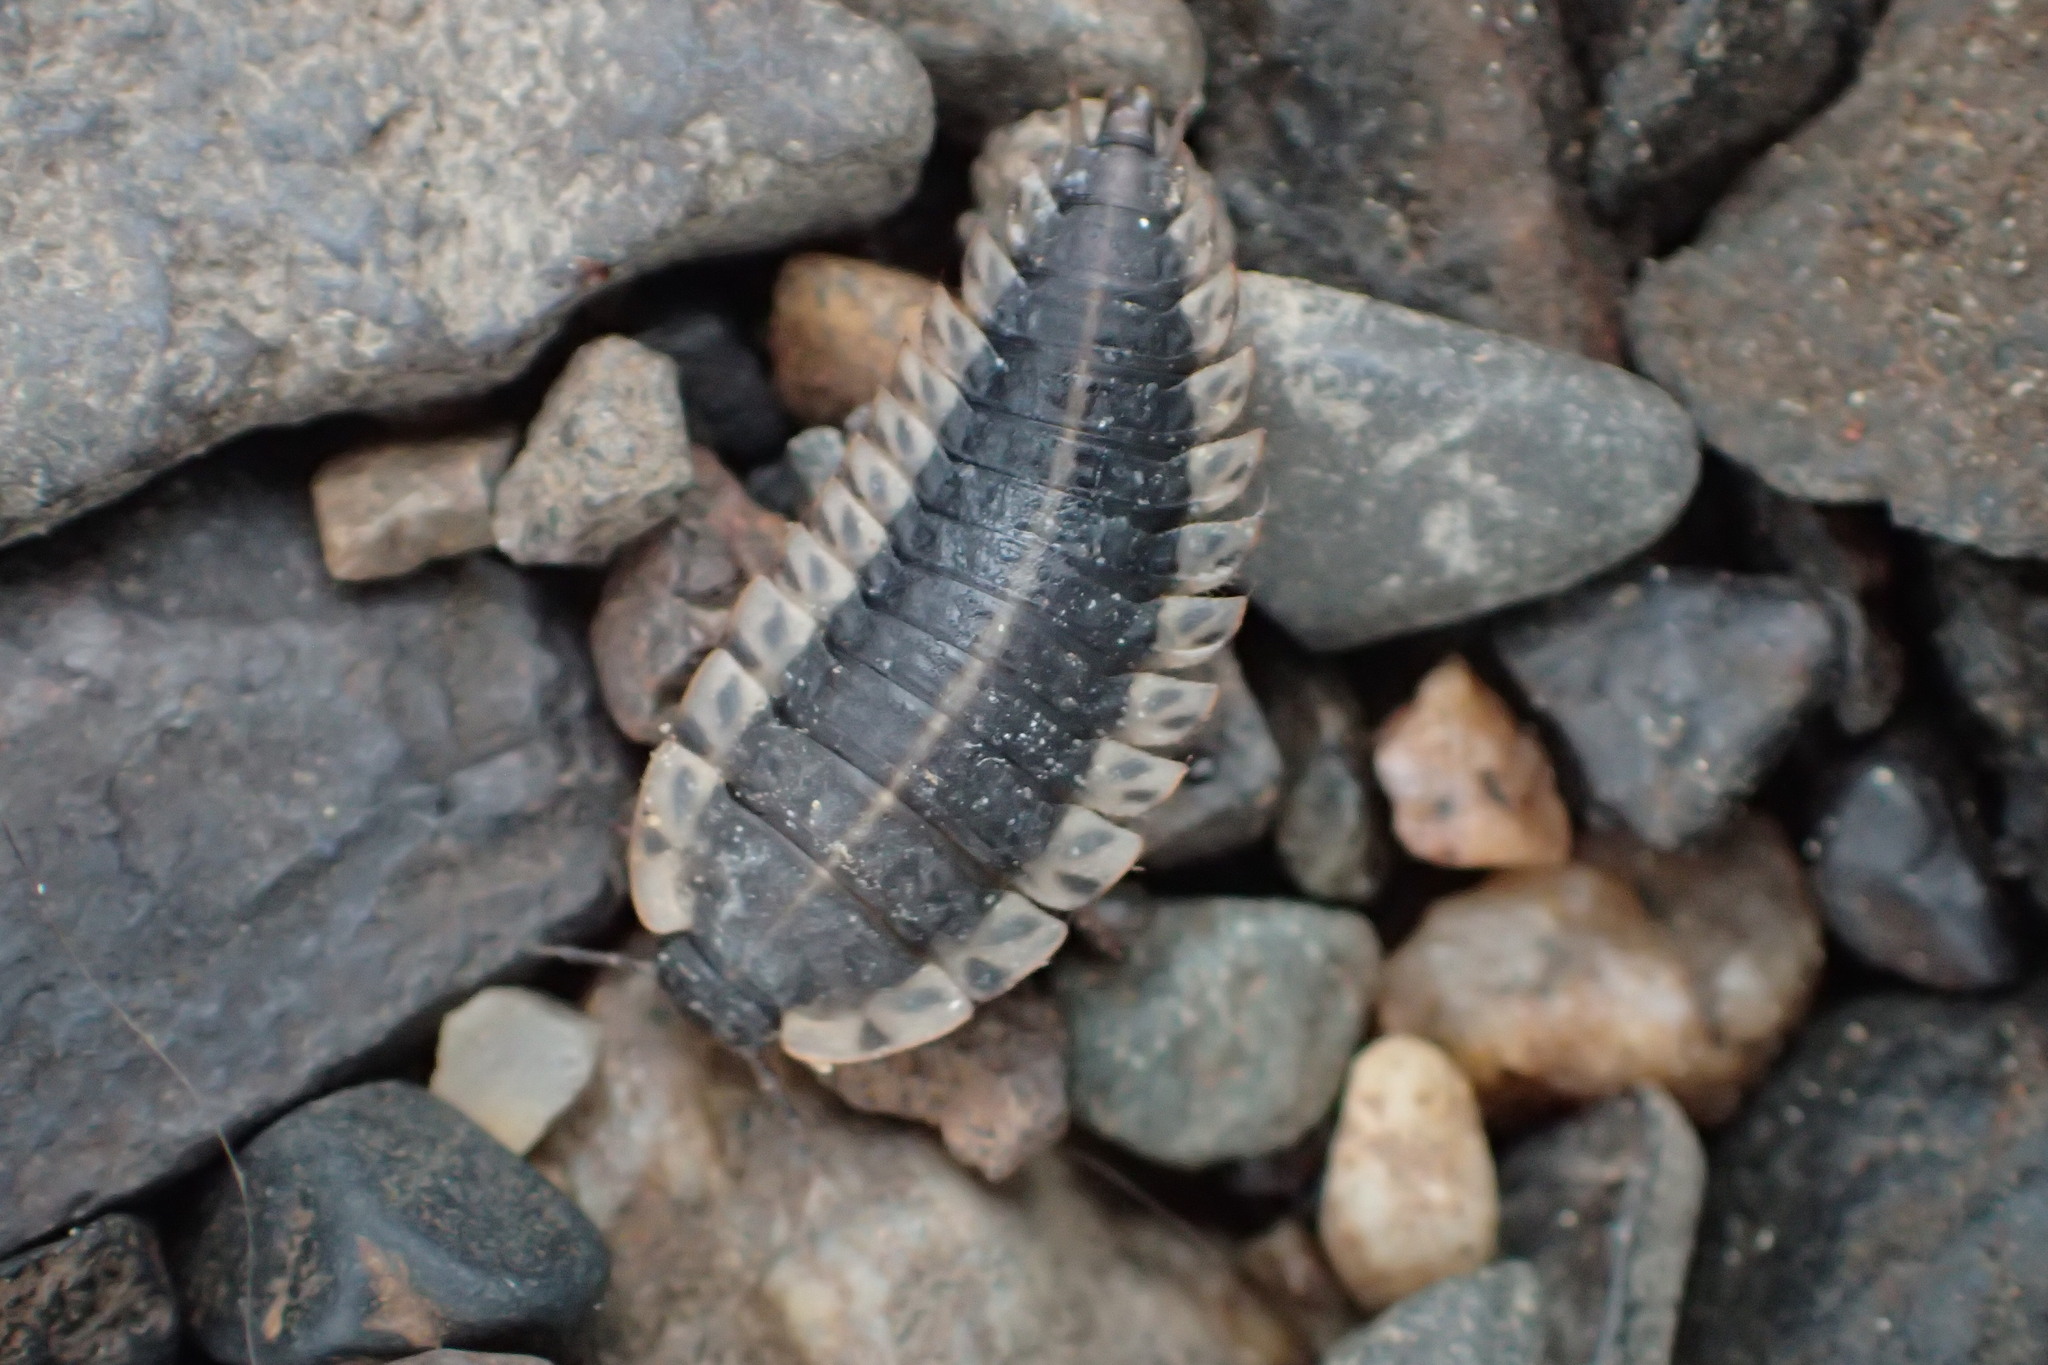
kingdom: Animalia
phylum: Arthropoda
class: Insecta
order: Coleoptera
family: Staphylinidae
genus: Oiceoptoma
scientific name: Oiceoptoma noveboracense
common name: Margined carrion beetle
